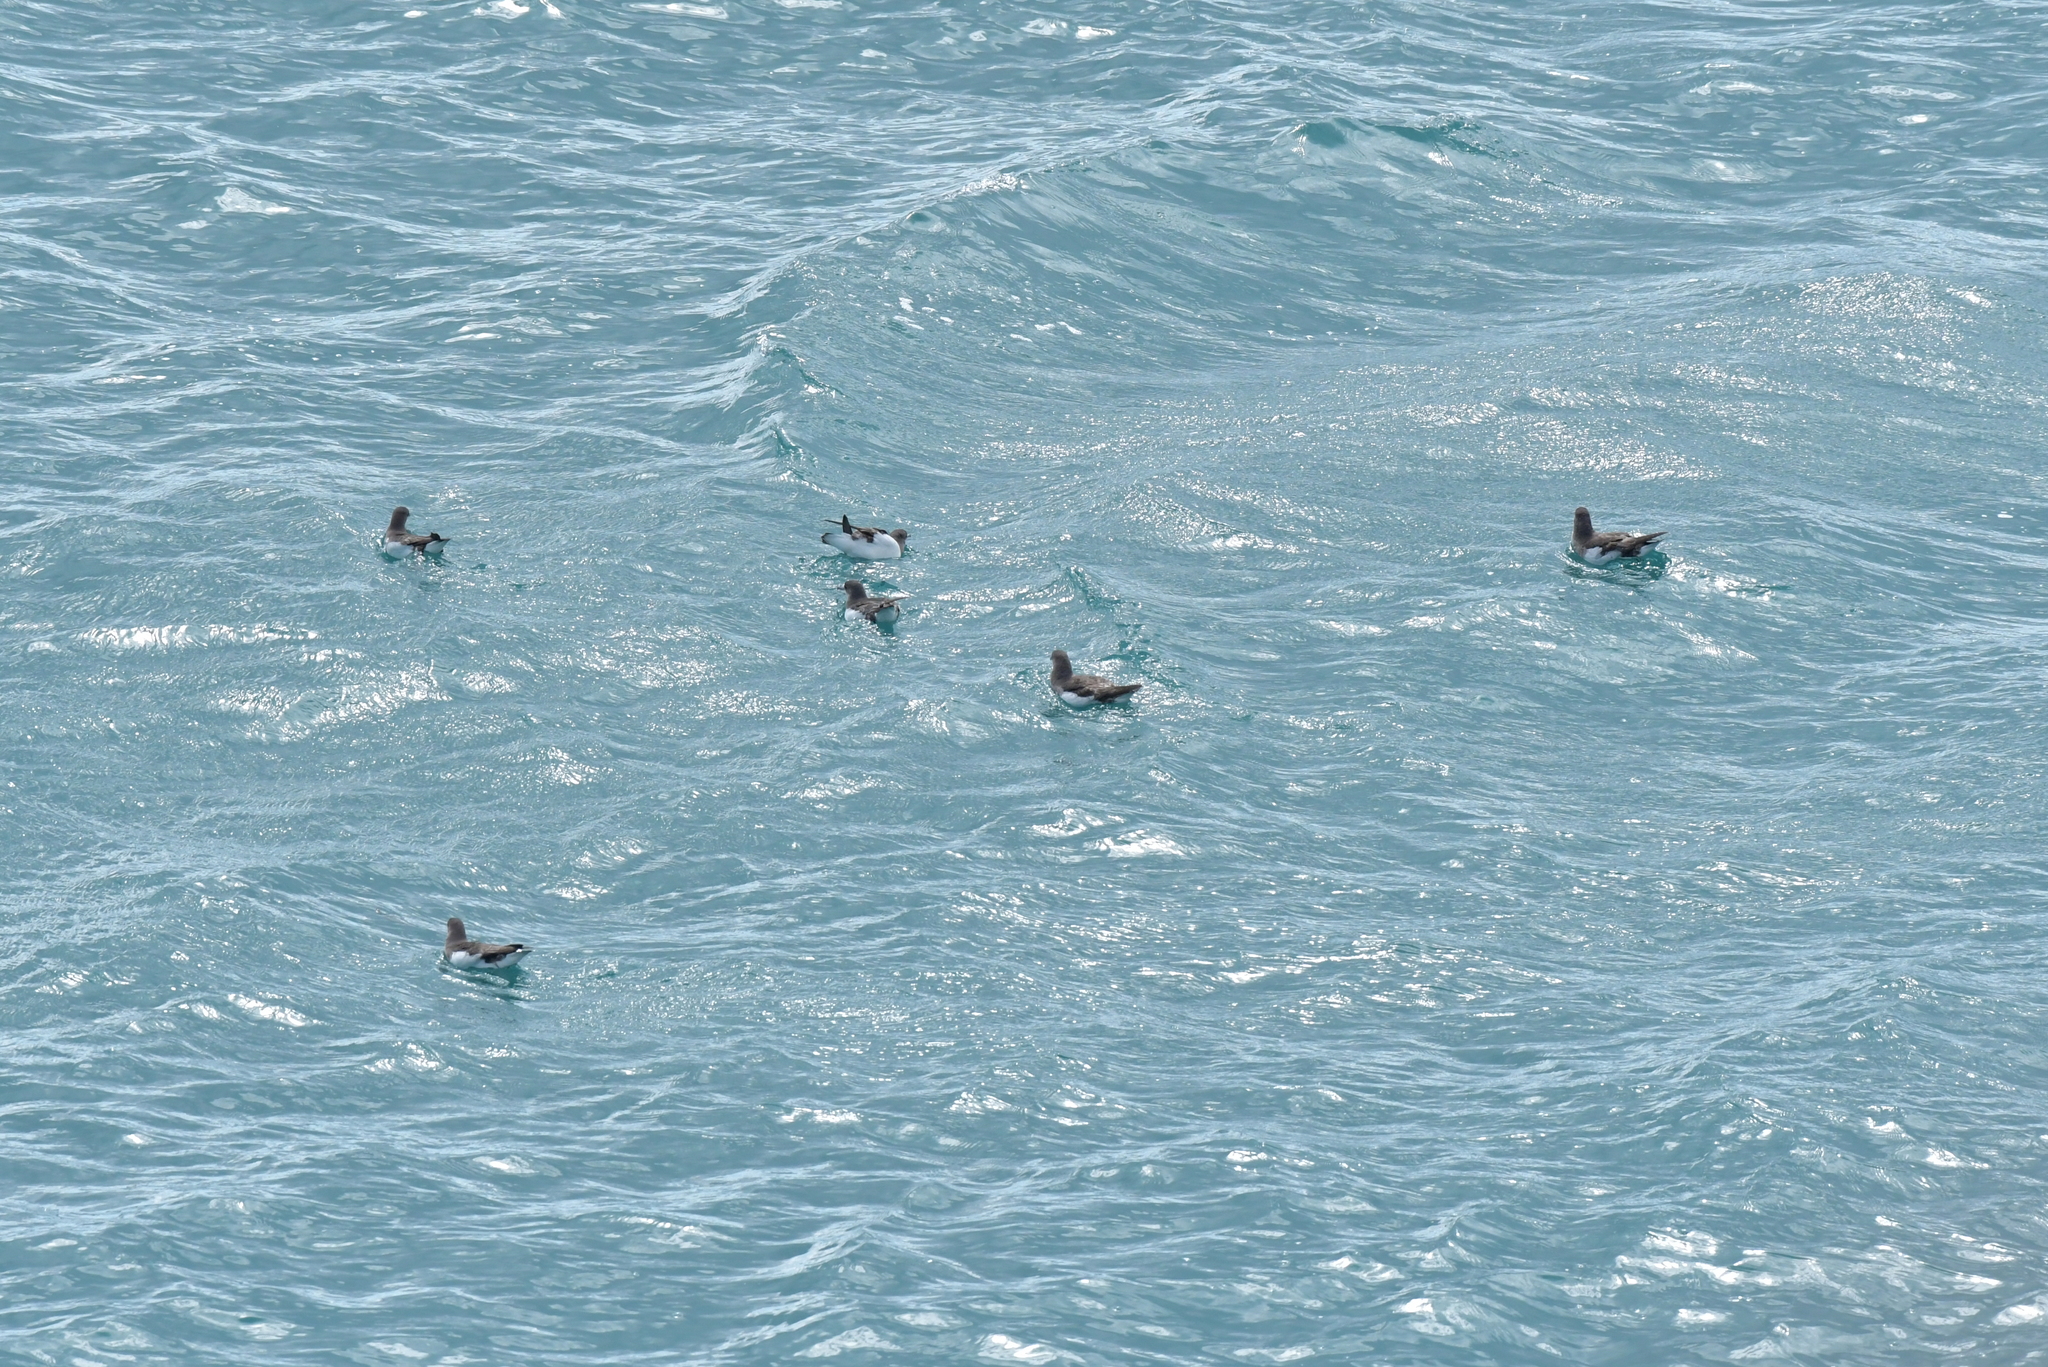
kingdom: Animalia
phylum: Chordata
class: Aves
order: Procellariiformes
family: Procellariidae
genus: Puffinus
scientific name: Puffinus gavia
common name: Fluttering shearwater
